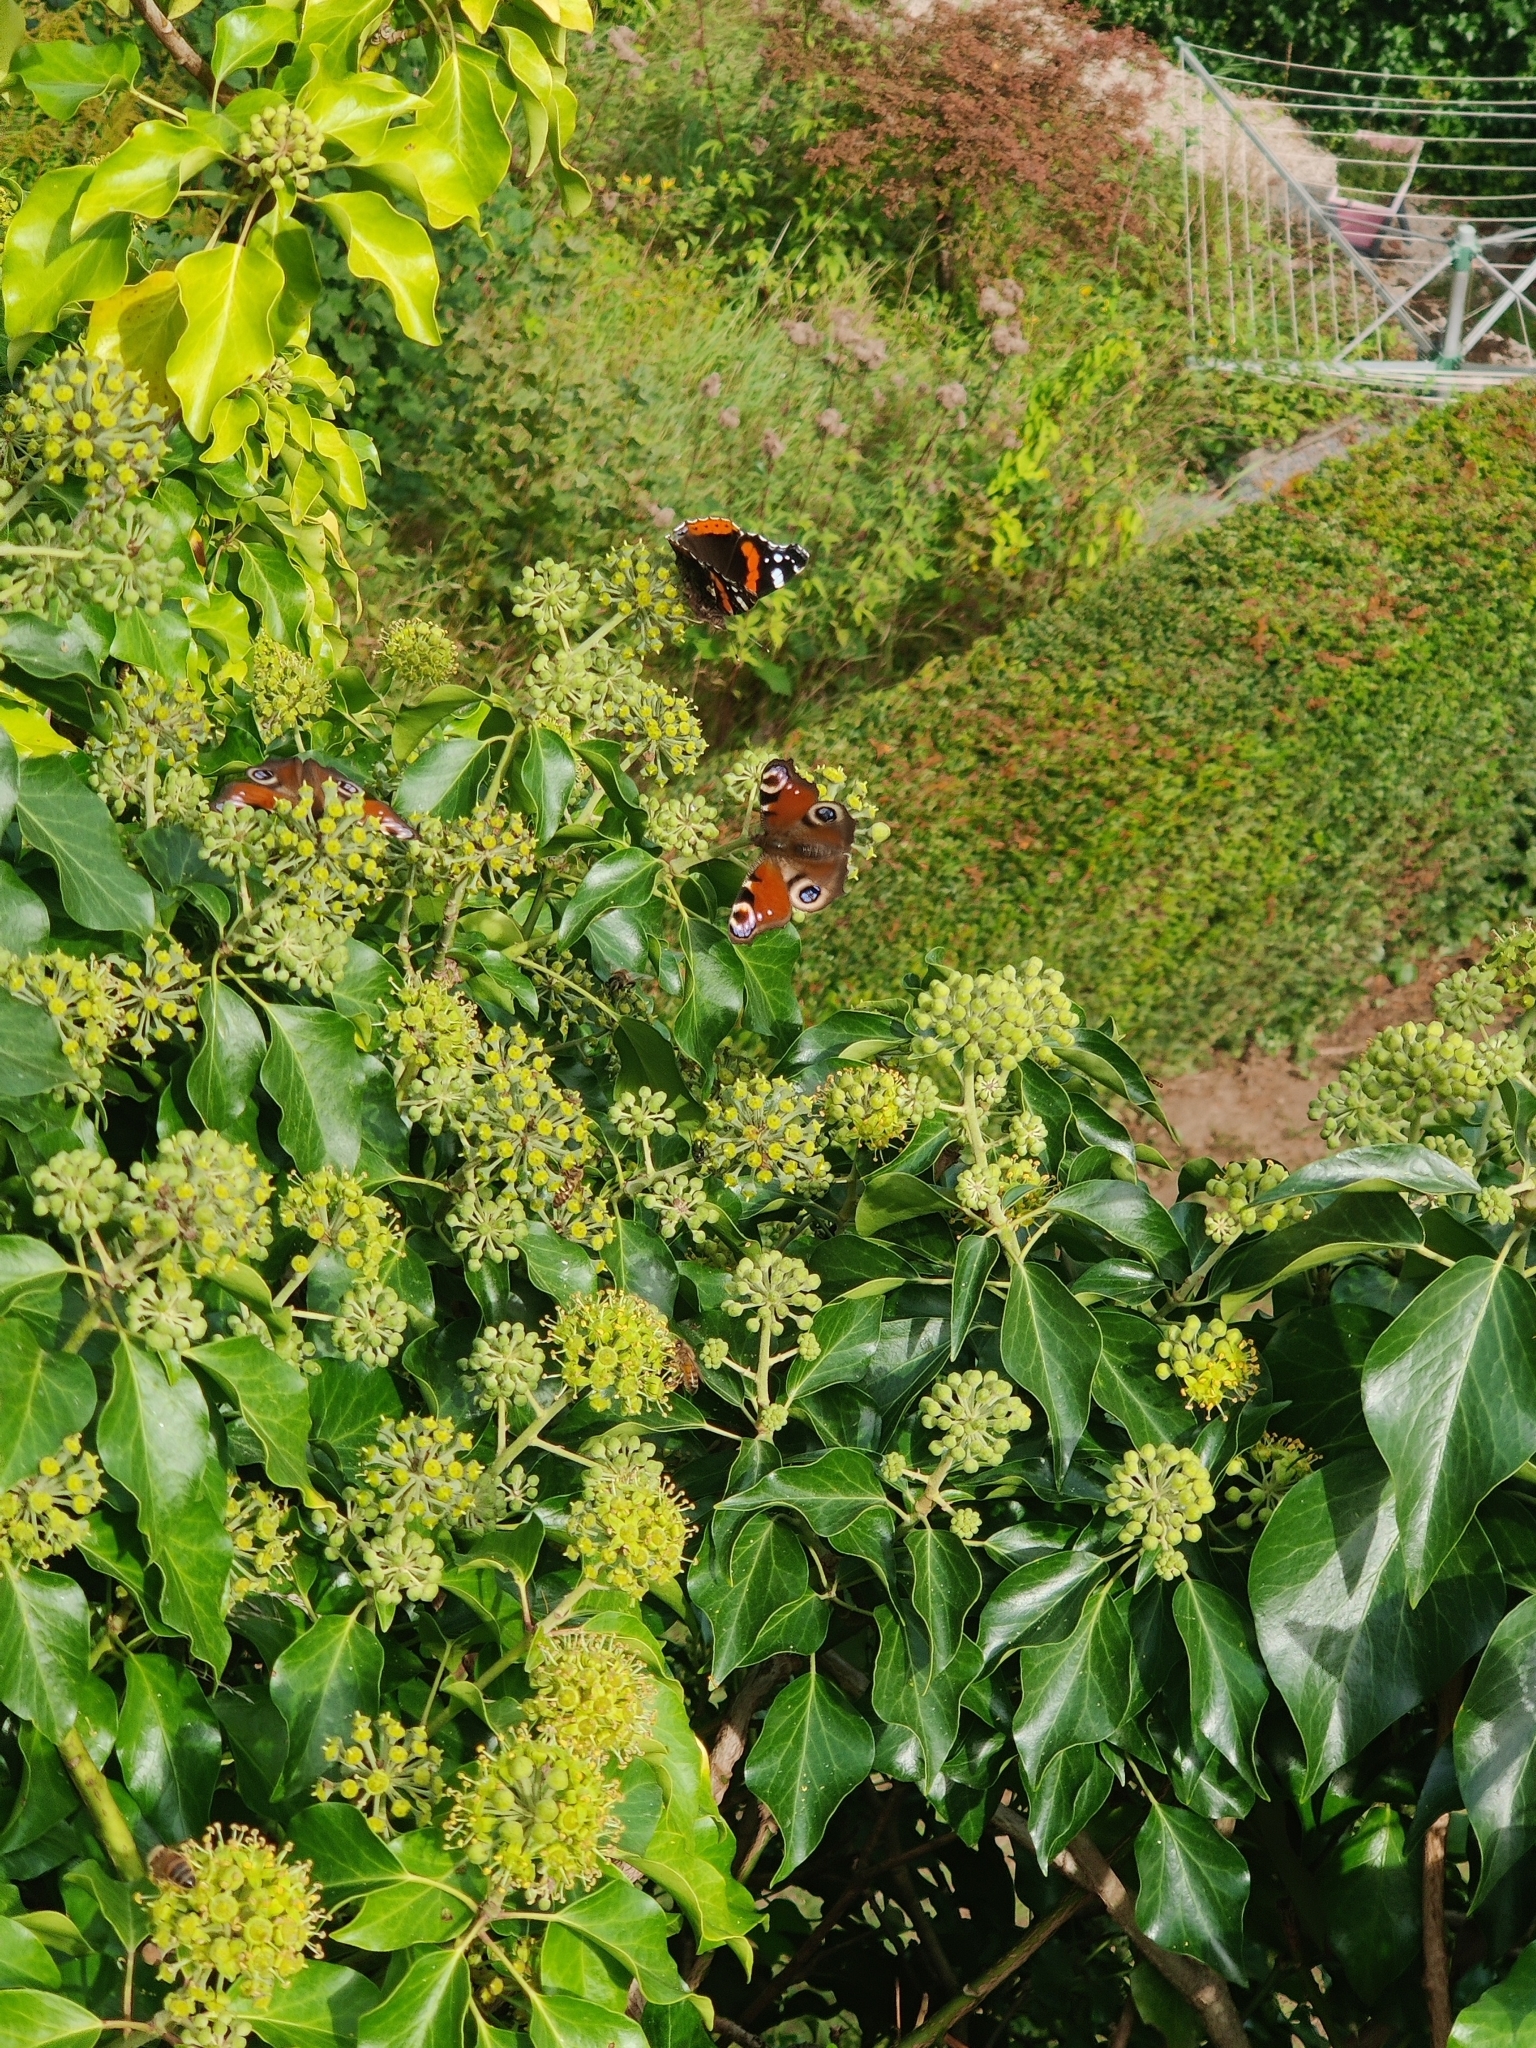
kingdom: Animalia
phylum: Arthropoda
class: Insecta
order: Lepidoptera
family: Nymphalidae
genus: Vanessa
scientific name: Vanessa atalanta
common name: Red admiral
